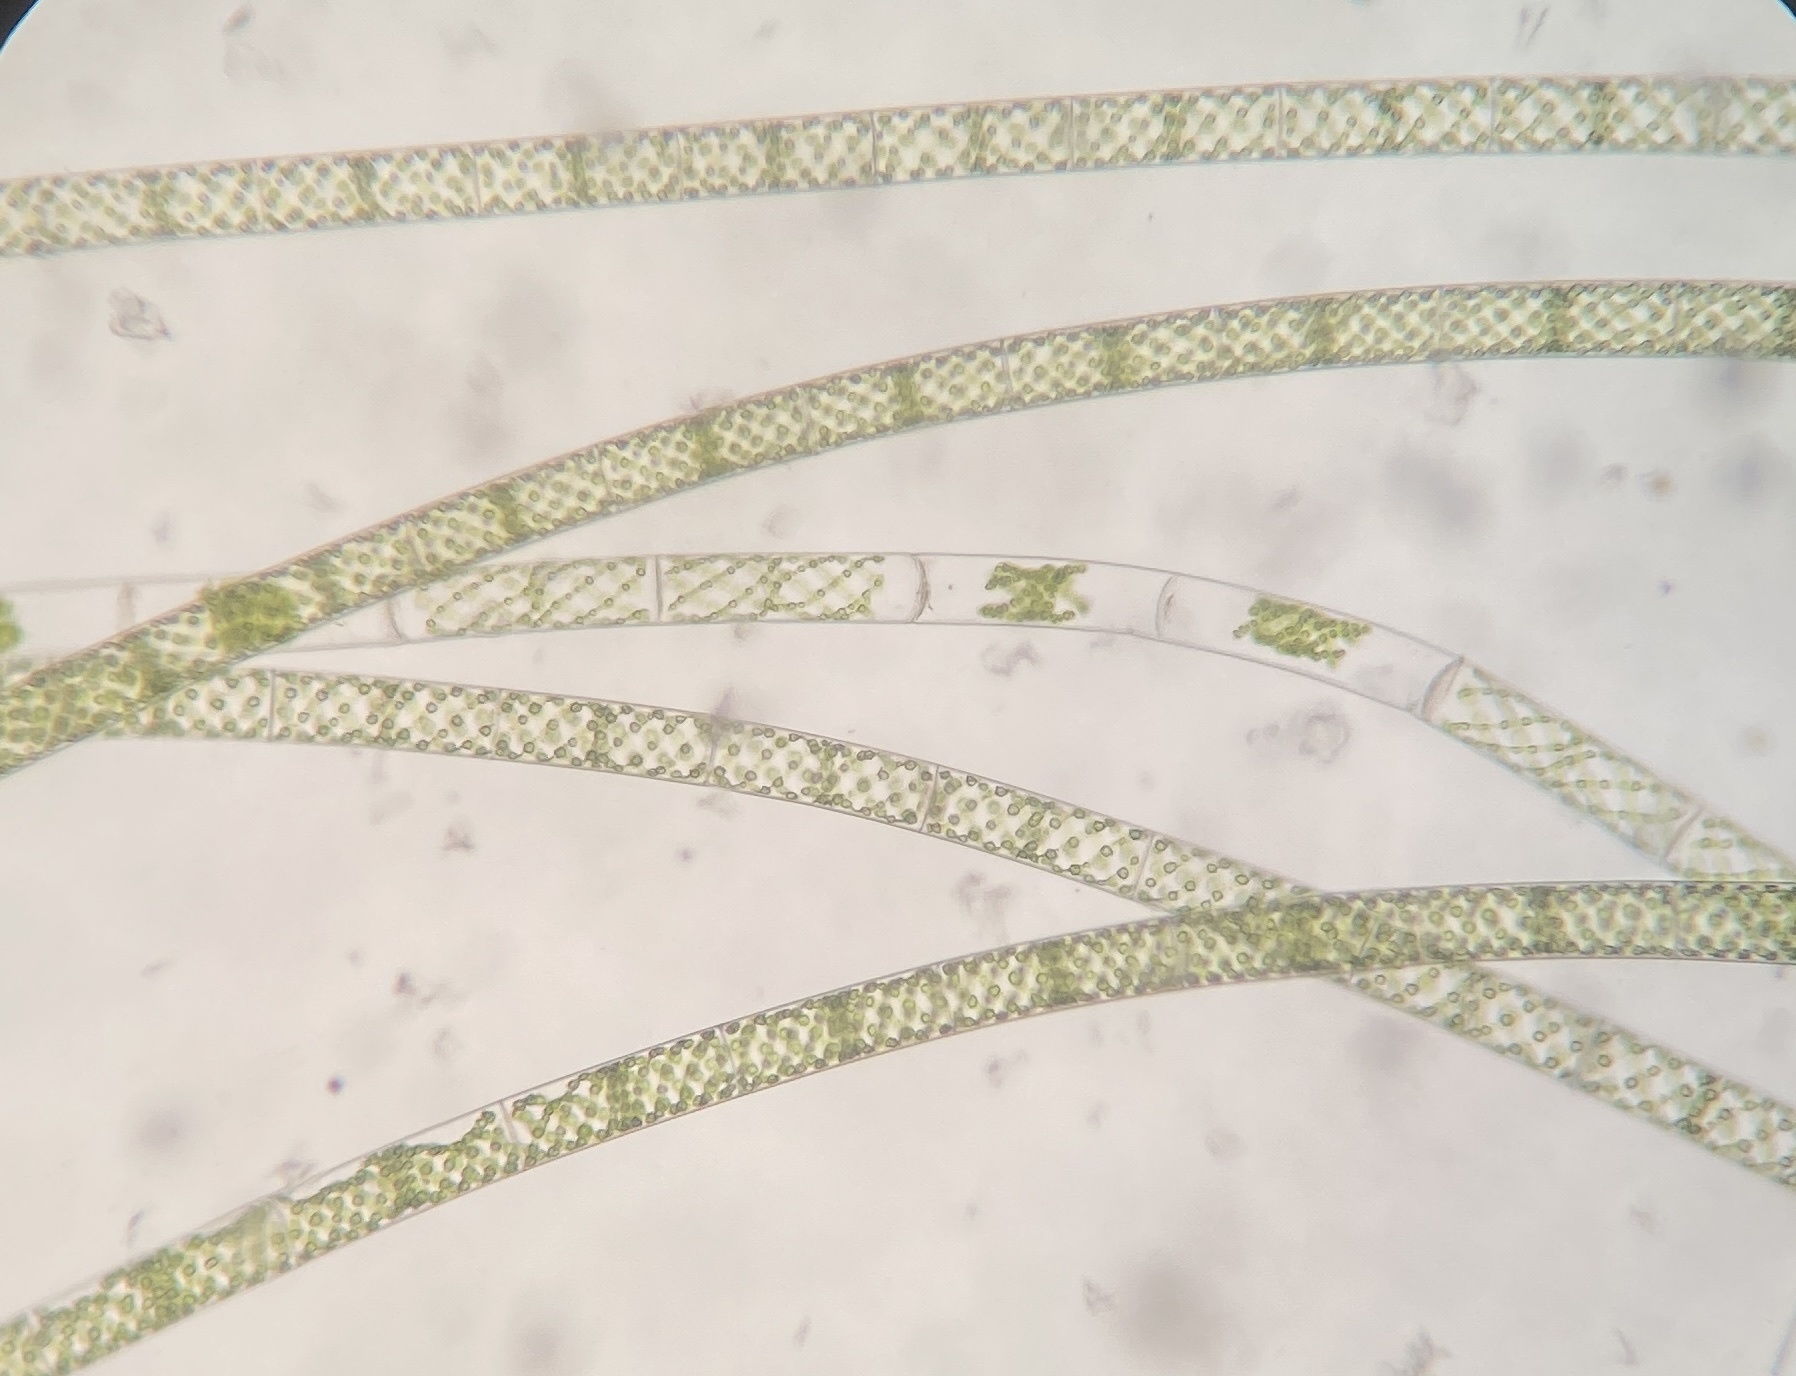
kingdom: Plantae
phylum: Charophyta
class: Zygnematophyceae
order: Zygnematales
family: Zygnemataceae
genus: Spirogyra
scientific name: Spirogyra
